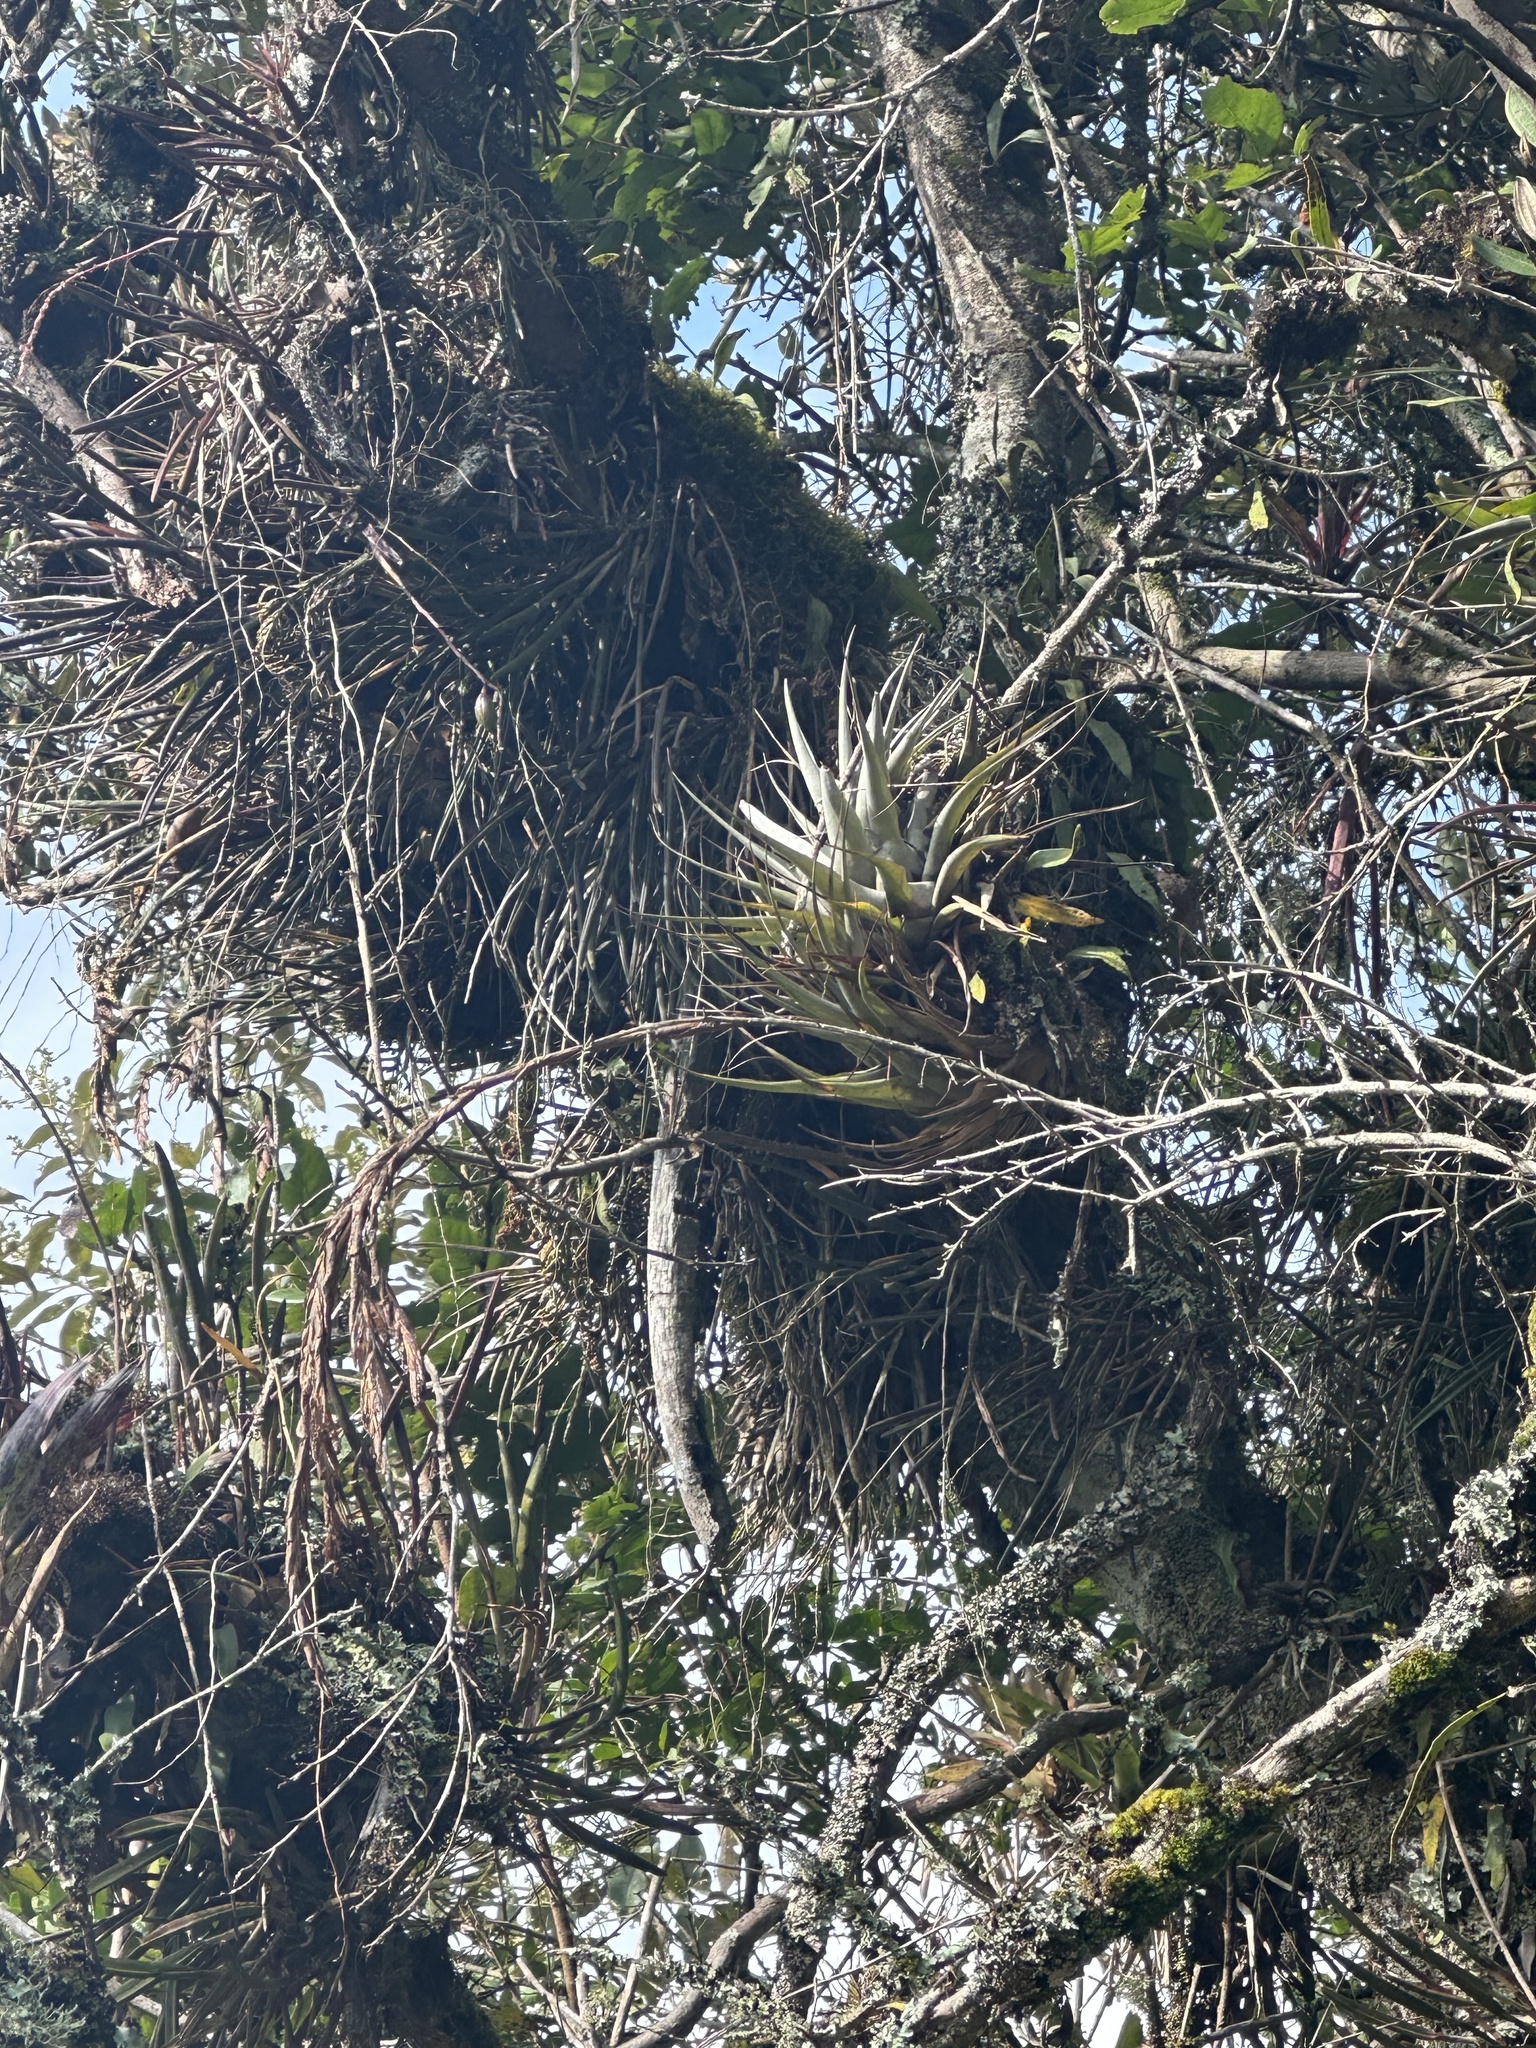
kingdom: Plantae
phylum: Tracheophyta
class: Liliopsida
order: Poales
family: Bromeliaceae
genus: Vriesea
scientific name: Vriesea robusta
